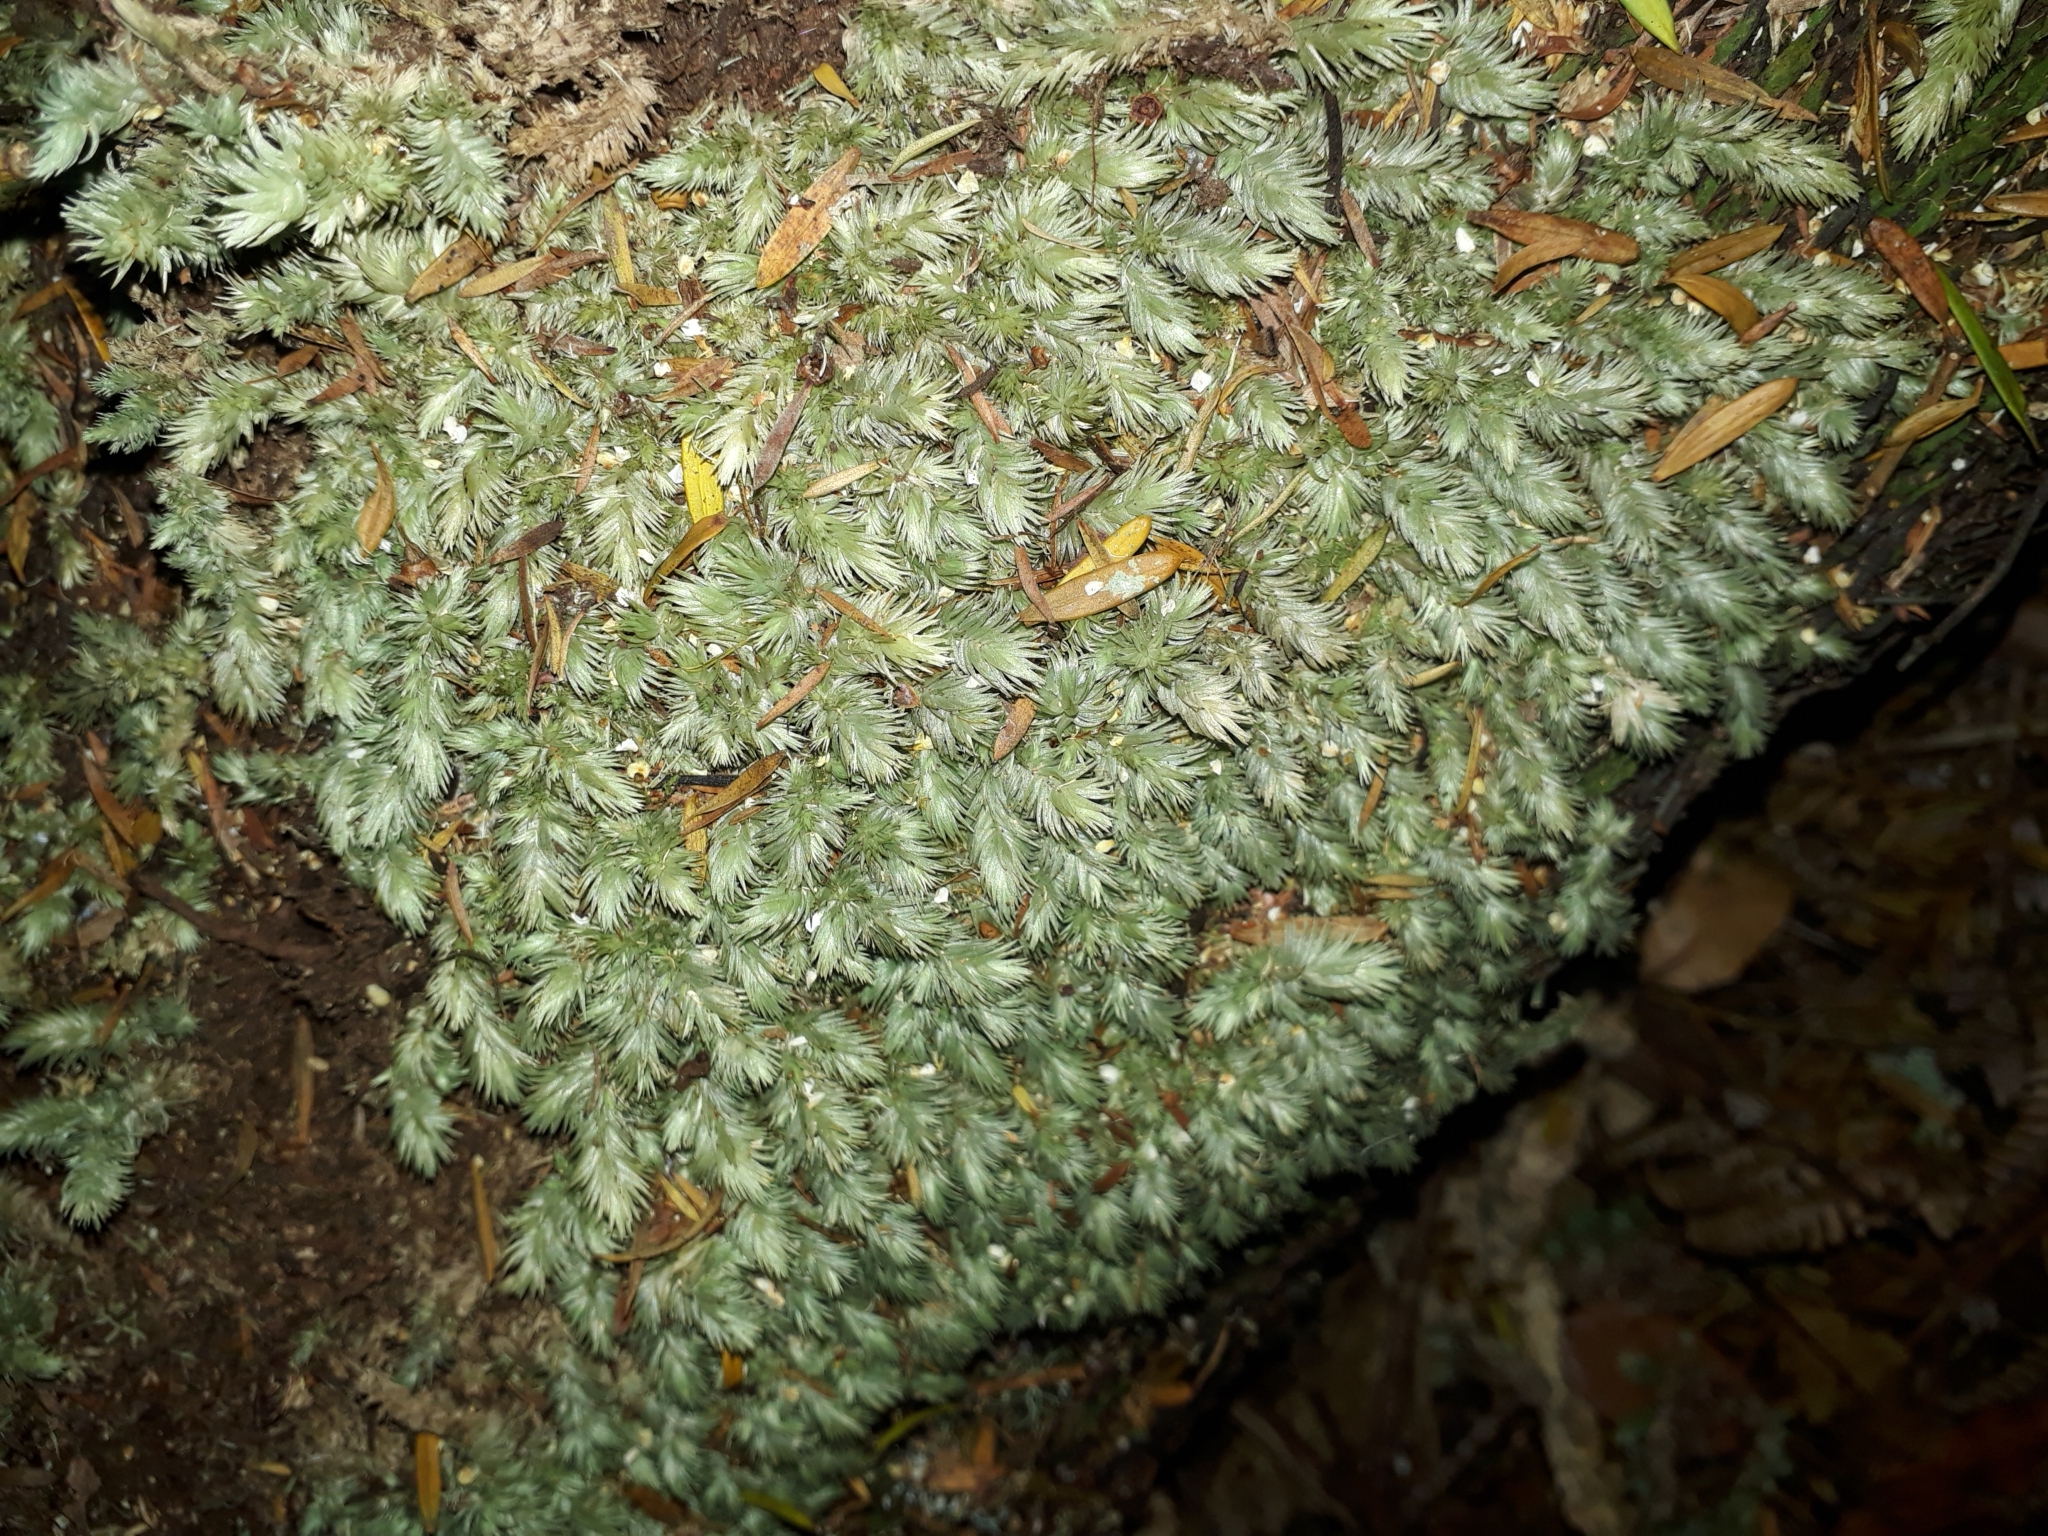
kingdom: Plantae
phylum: Bryophyta
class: Bryopsida
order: Dicranales
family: Leucobryaceae
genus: Leucobryum
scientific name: Leucobryum javense
